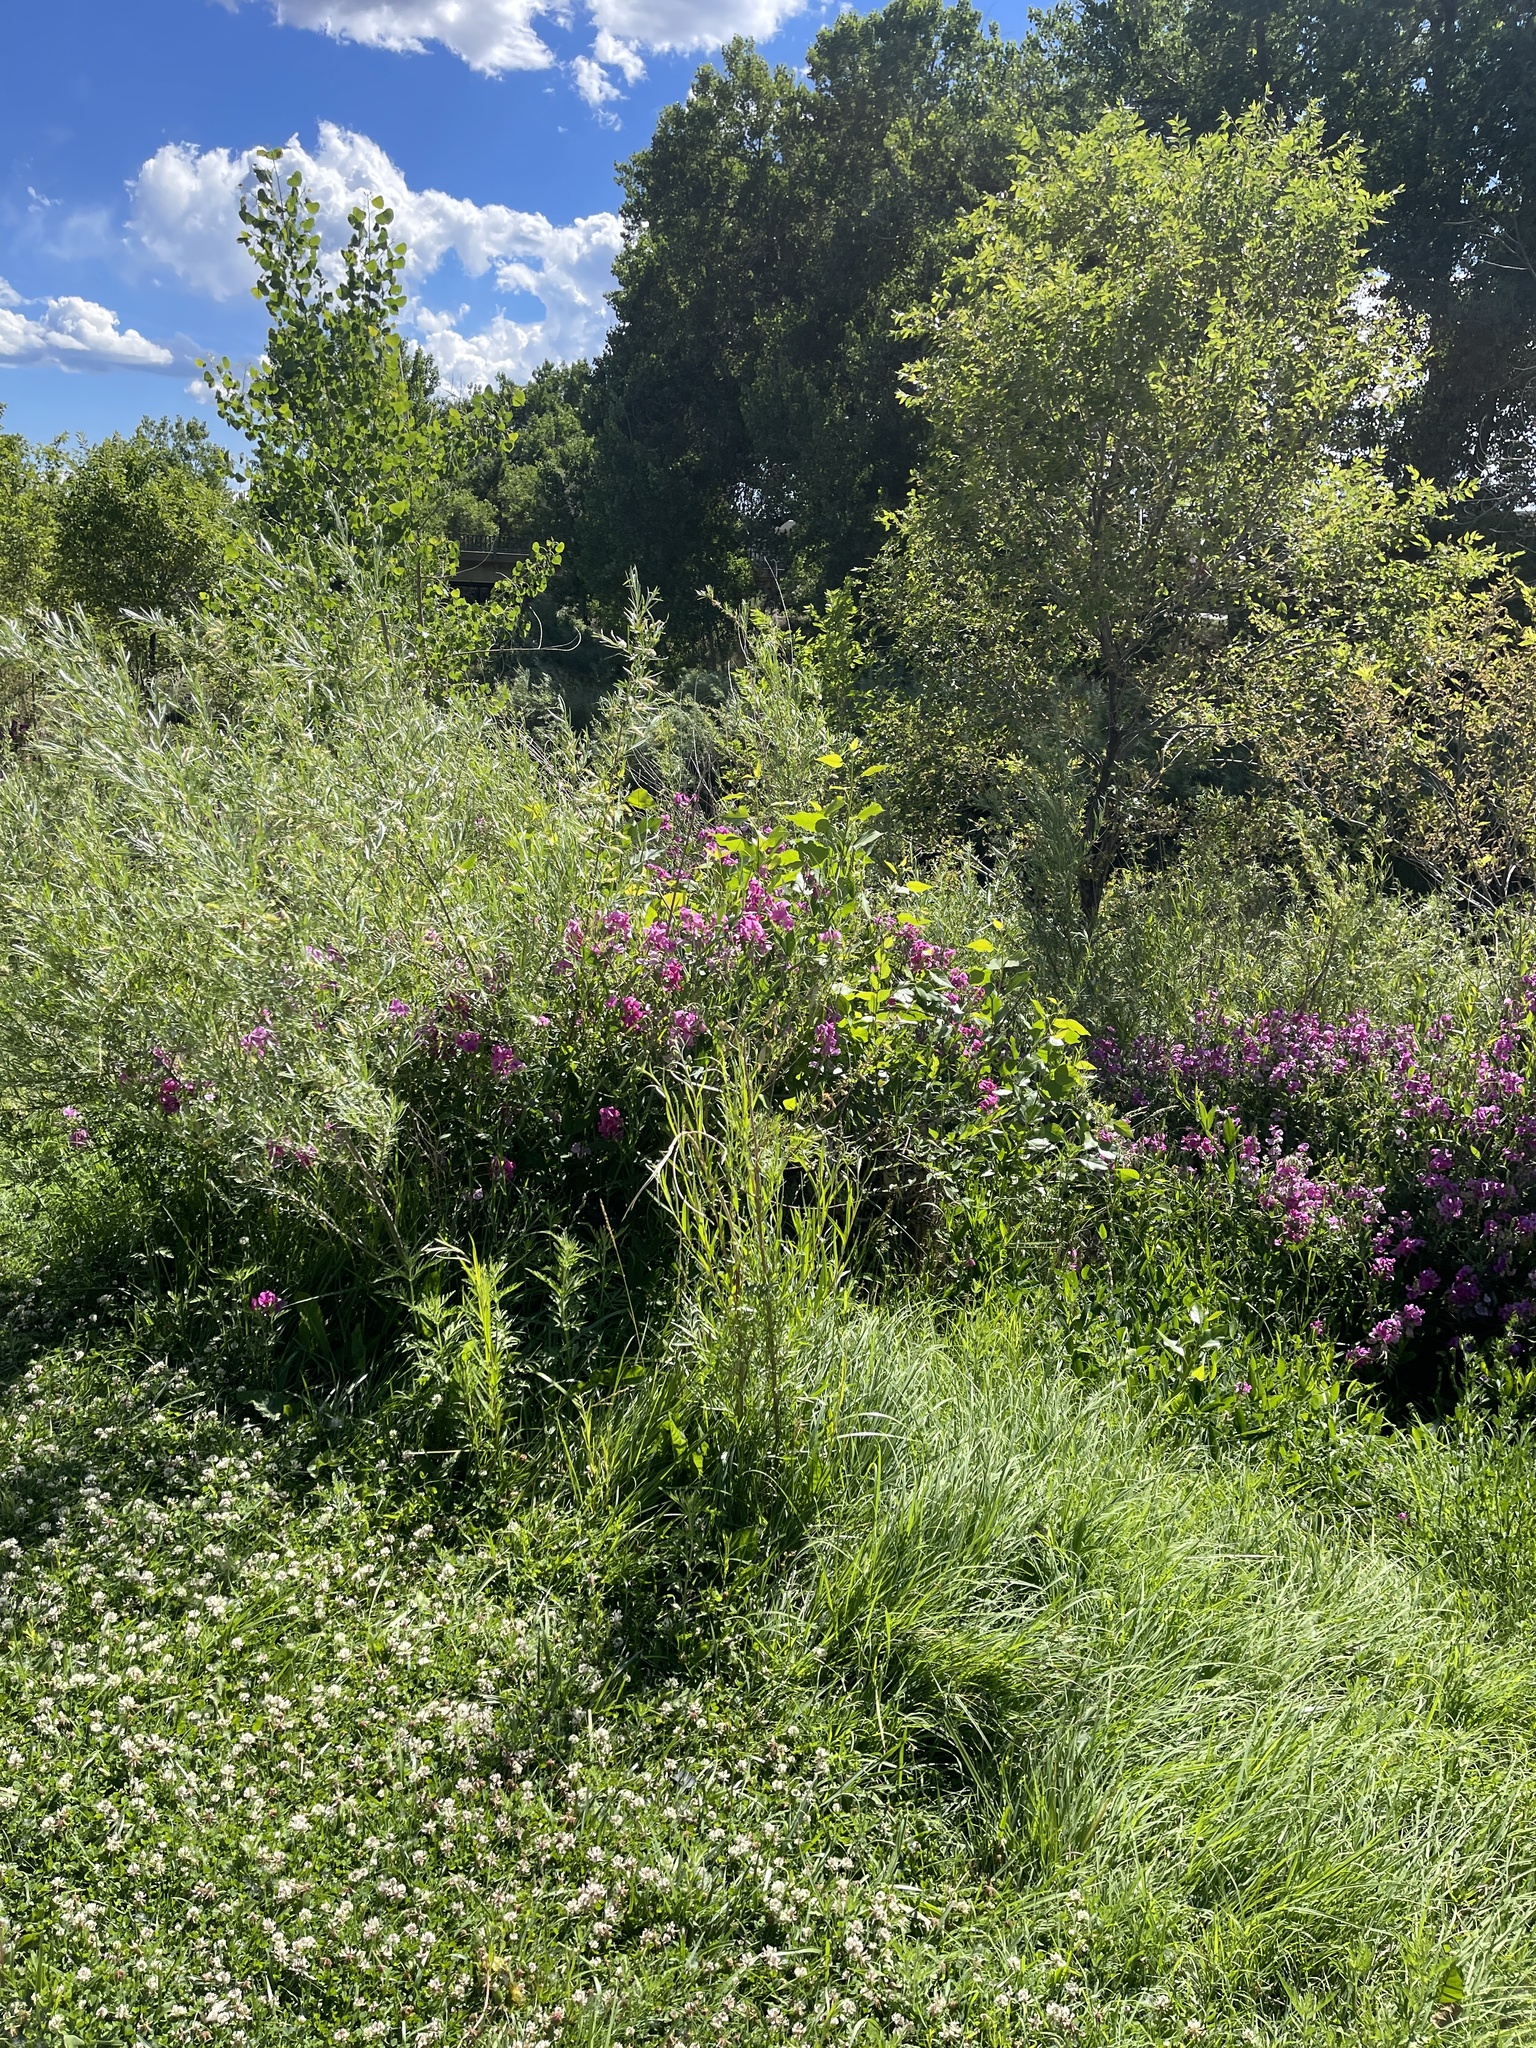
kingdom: Plantae
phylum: Tracheophyta
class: Magnoliopsida
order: Fabales
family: Fabaceae
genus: Lathyrus
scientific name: Lathyrus latifolius
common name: Perennial pea
